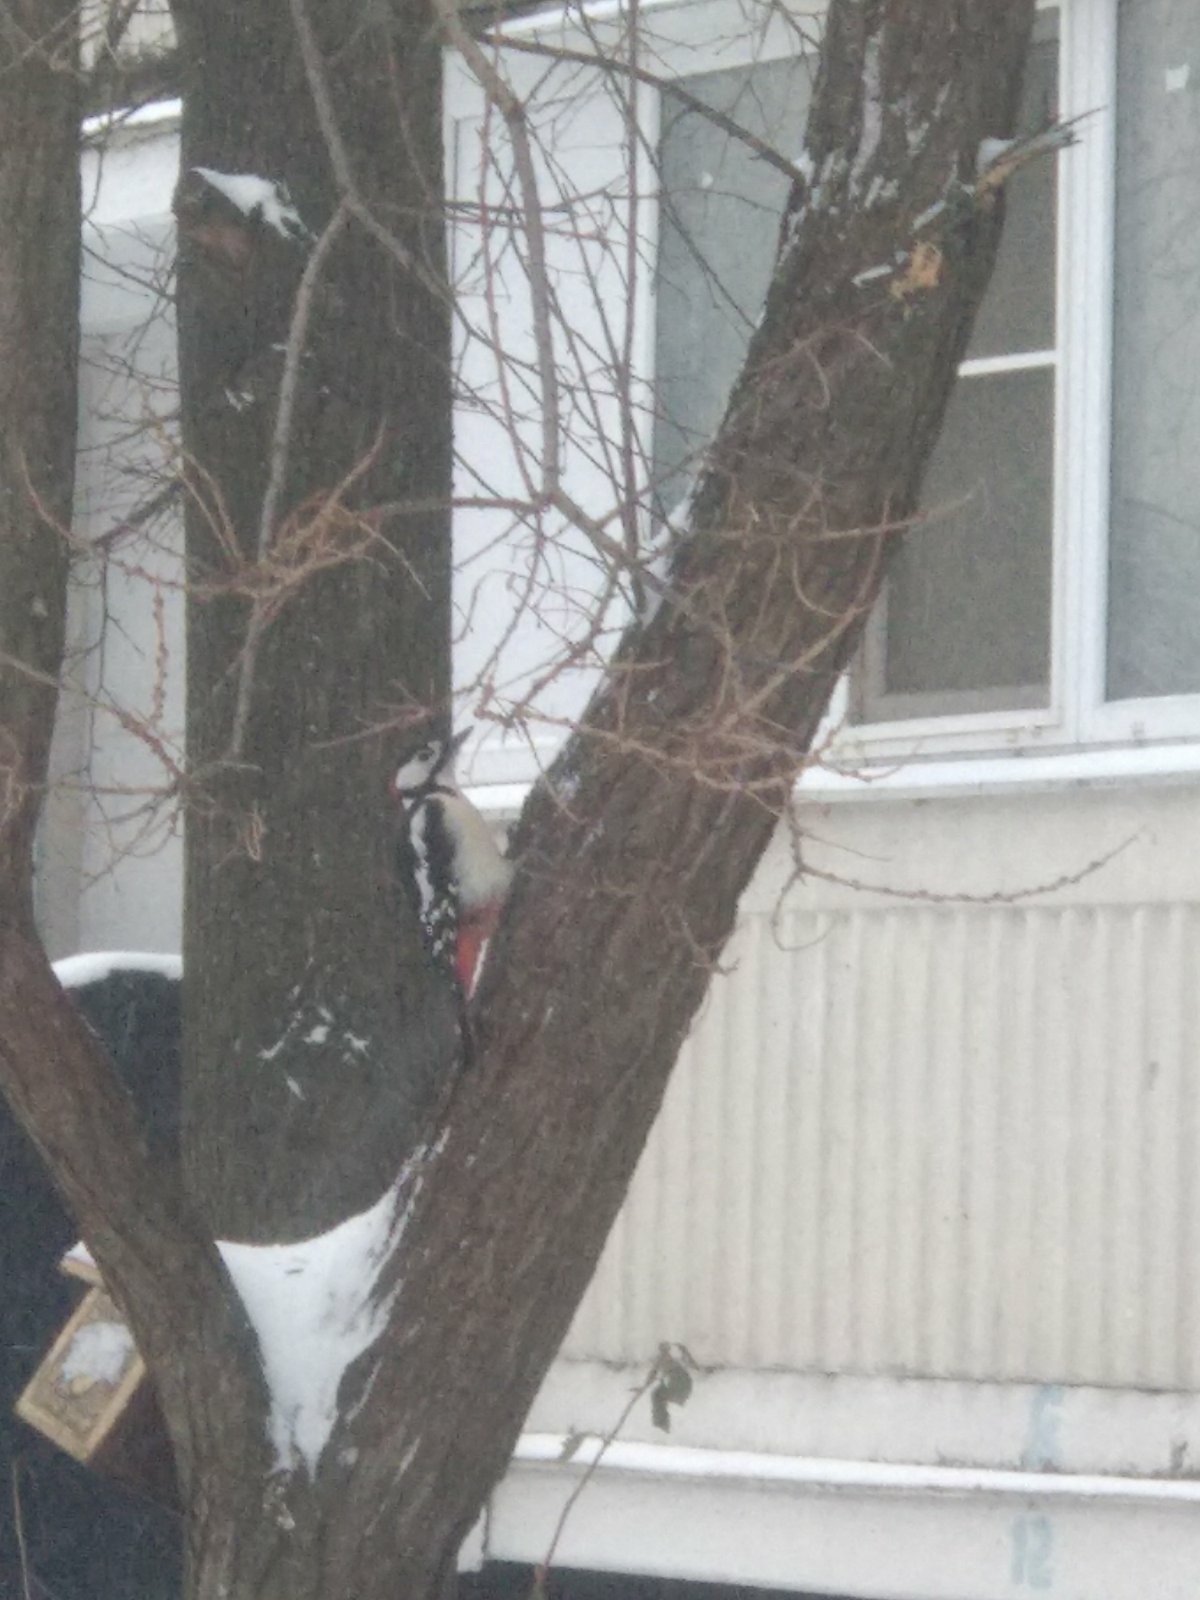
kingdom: Animalia
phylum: Chordata
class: Aves
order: Piciformes
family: Picidae
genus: Dendrocopos
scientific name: Dendrocopos major
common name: Great spotted woodpecker
